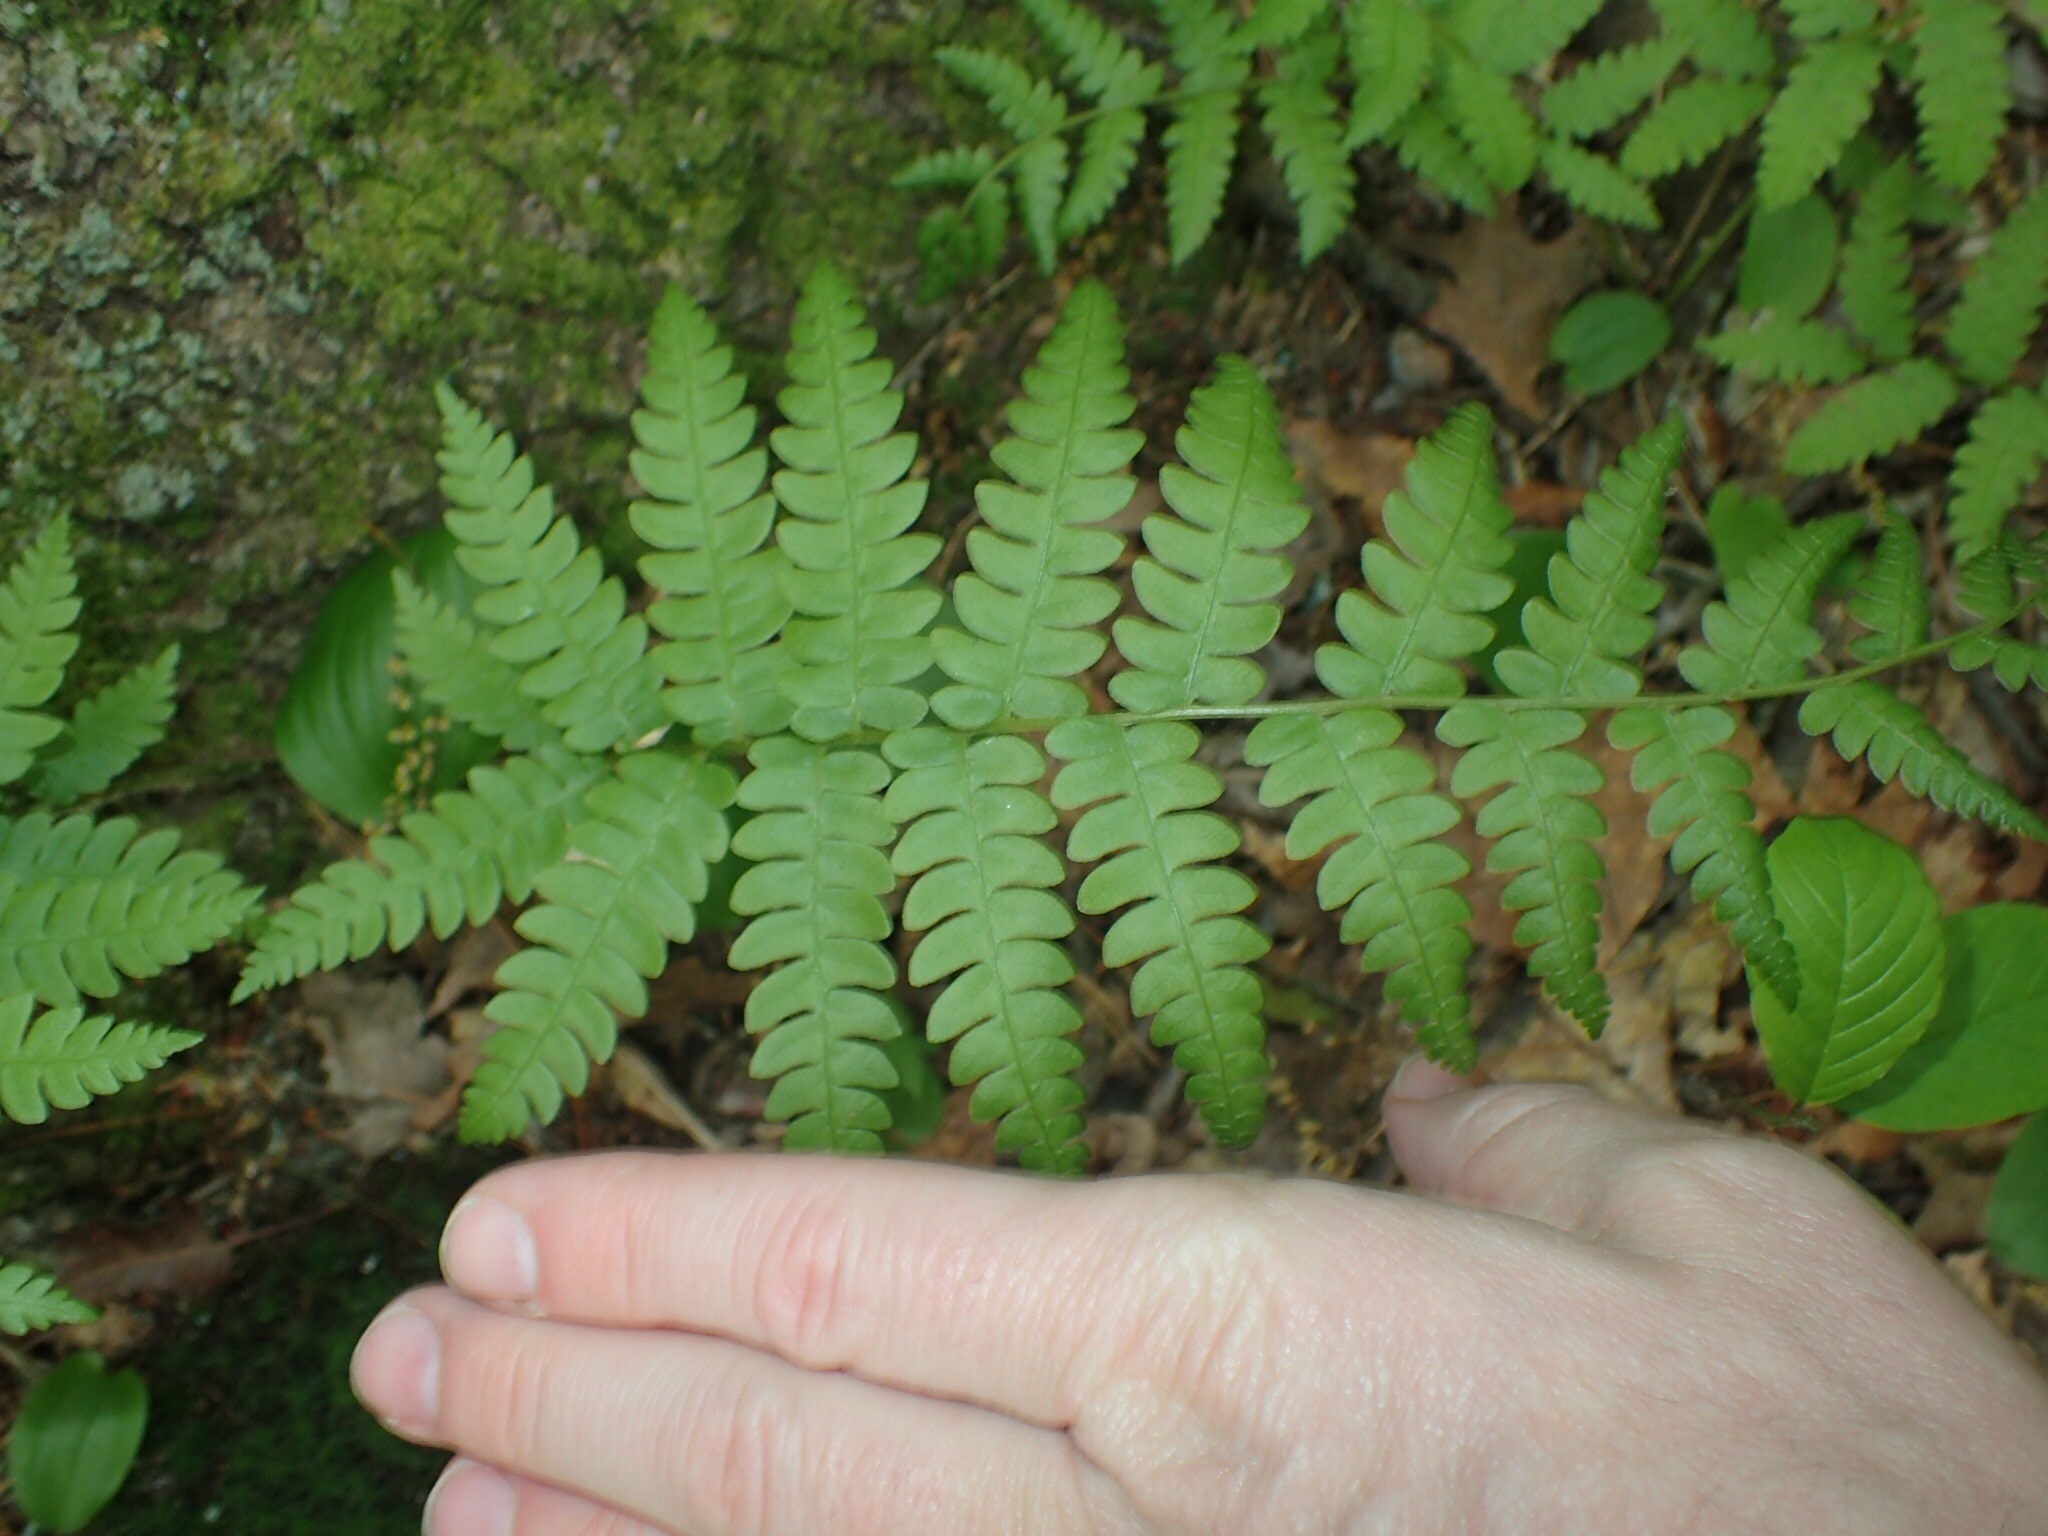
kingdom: Plantae
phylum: Tracheophyta
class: Polypodiopsida
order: Osmundales
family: Osmundaceae
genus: Osmundastrum
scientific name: Osmundastrum cinnamomeum
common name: Cinnamon fern
